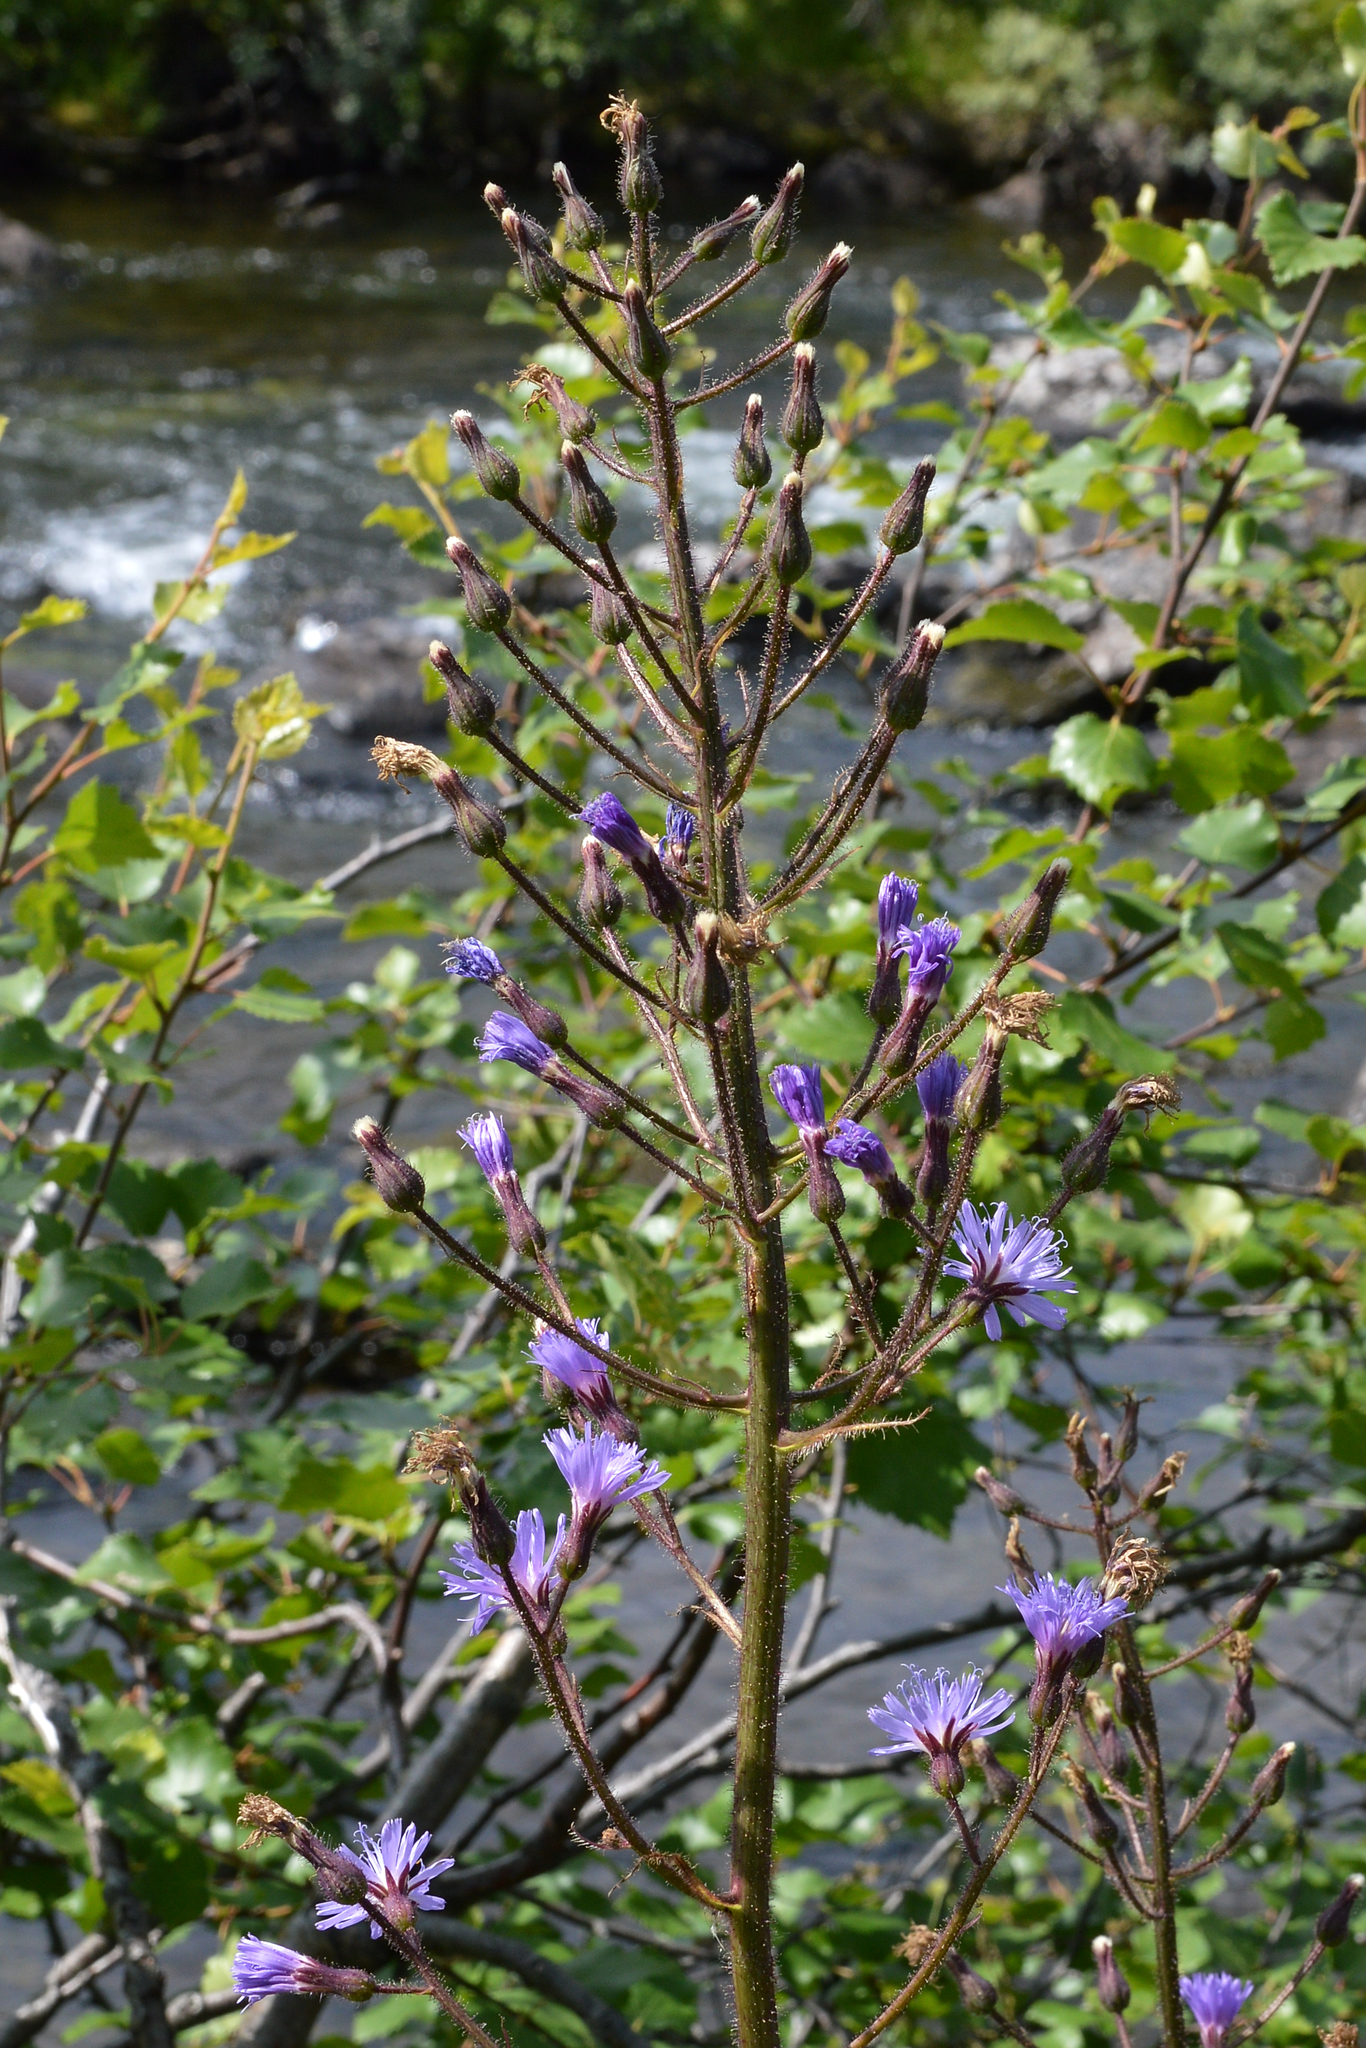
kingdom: Plantae
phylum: Tracheophyta
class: Magnoliopsida
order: Asterales
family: Asteraceae
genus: Cicerbita
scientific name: Cicerbita alpina
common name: Alpine blue-sow-thistle
